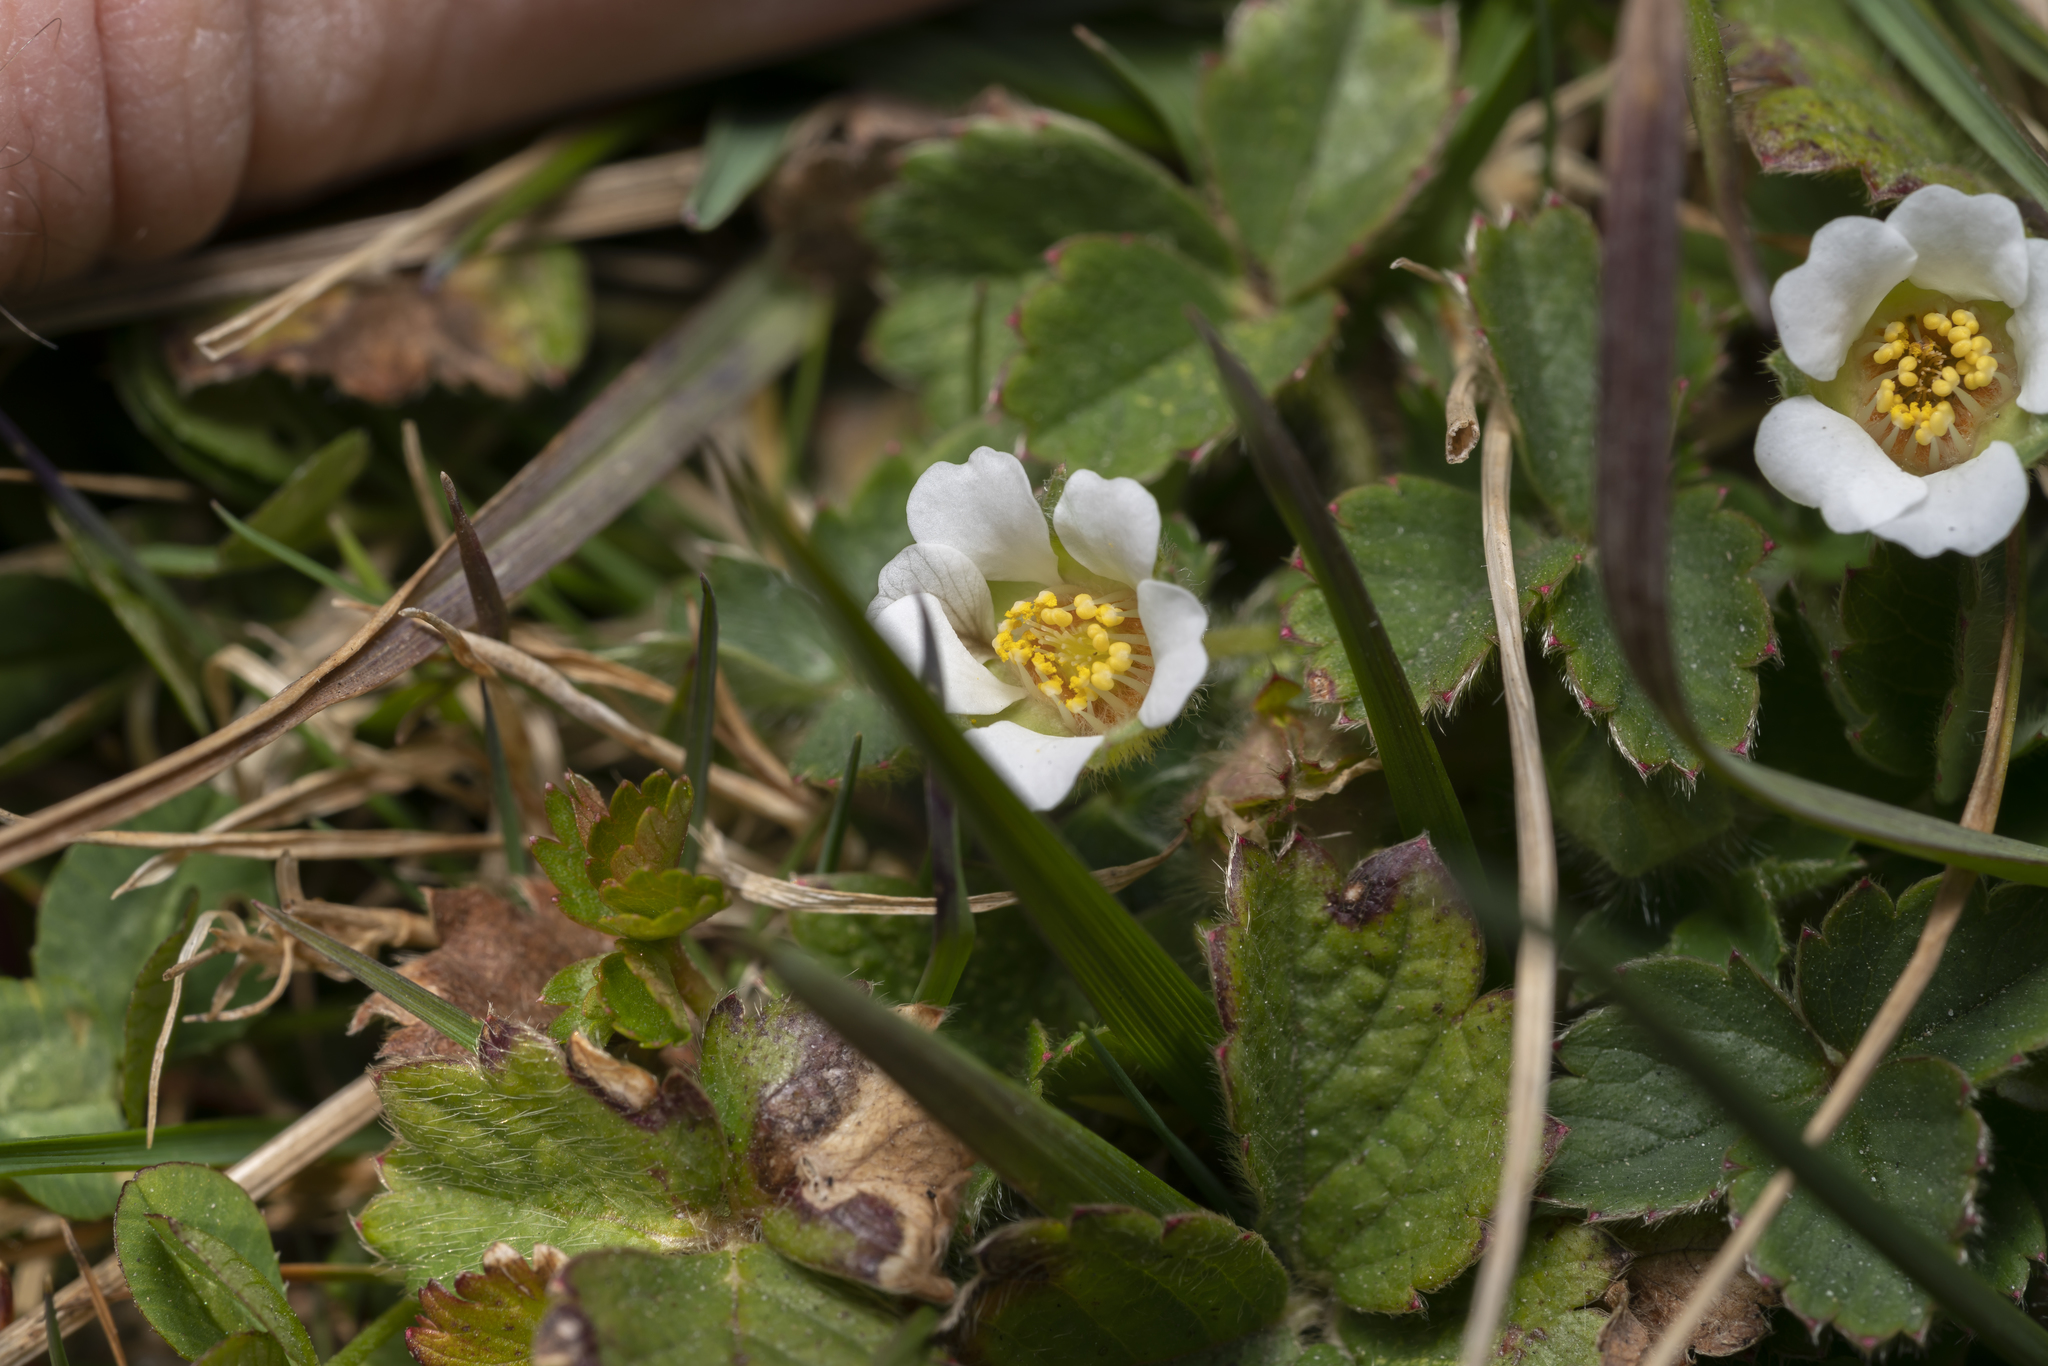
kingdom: Plantae
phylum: Tracheophyta
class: Magnoliopsida
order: Rosales
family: Rosaceae
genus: Potentilla
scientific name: Potentilla sterilis
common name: Barren strawberry
